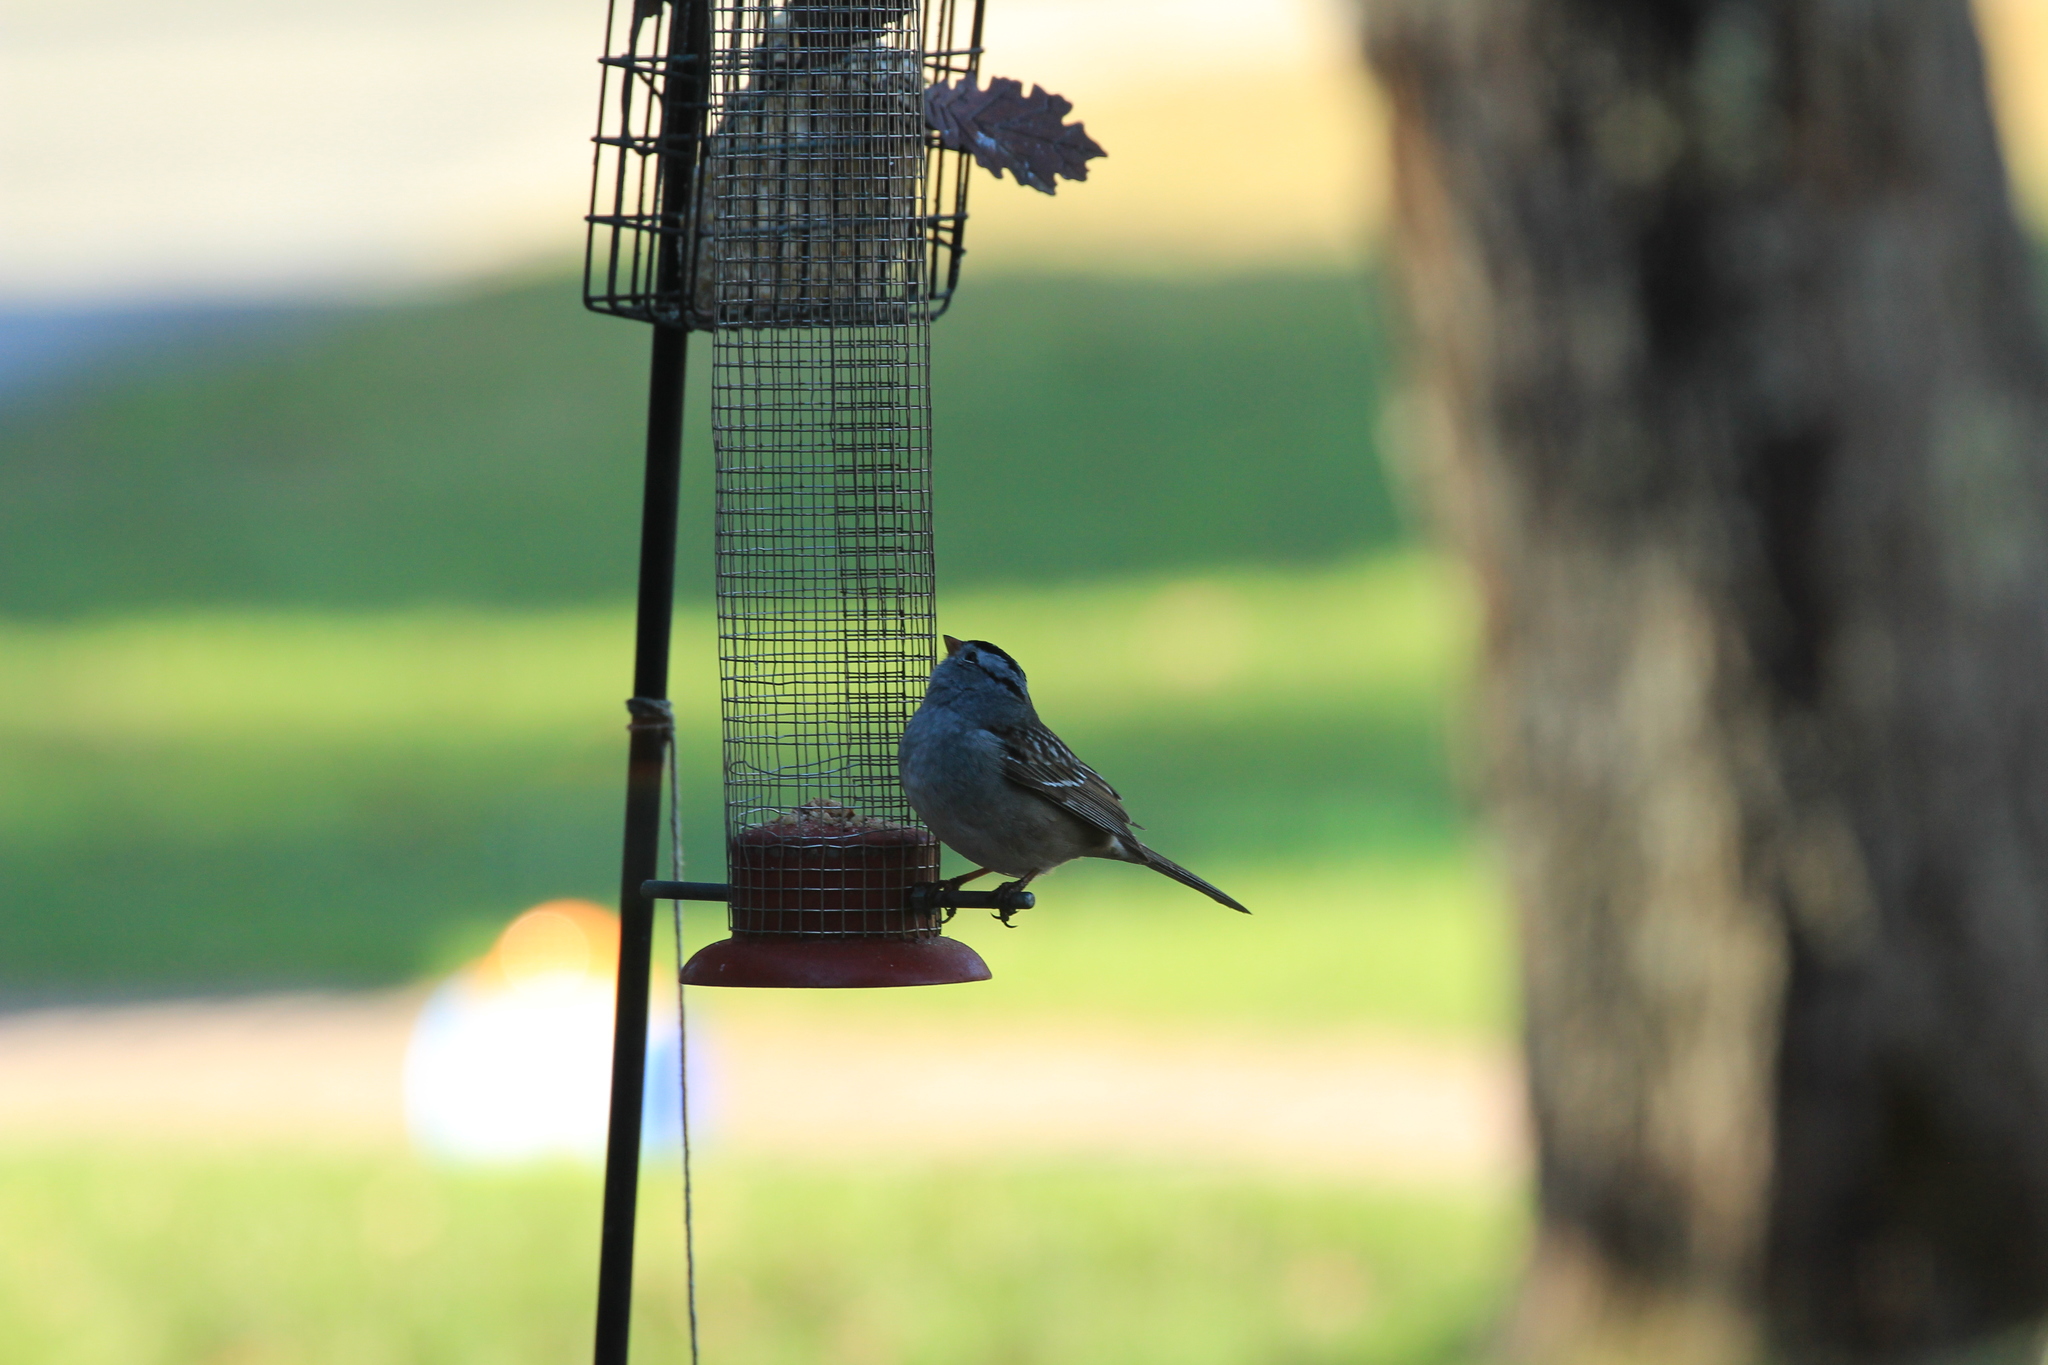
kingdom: Animalia
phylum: Chordata
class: Aves
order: Passeriformes
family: Passerellidae
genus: Zonotrichia
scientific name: Zonotrichia leucophrys
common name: White-crowned sparrow
